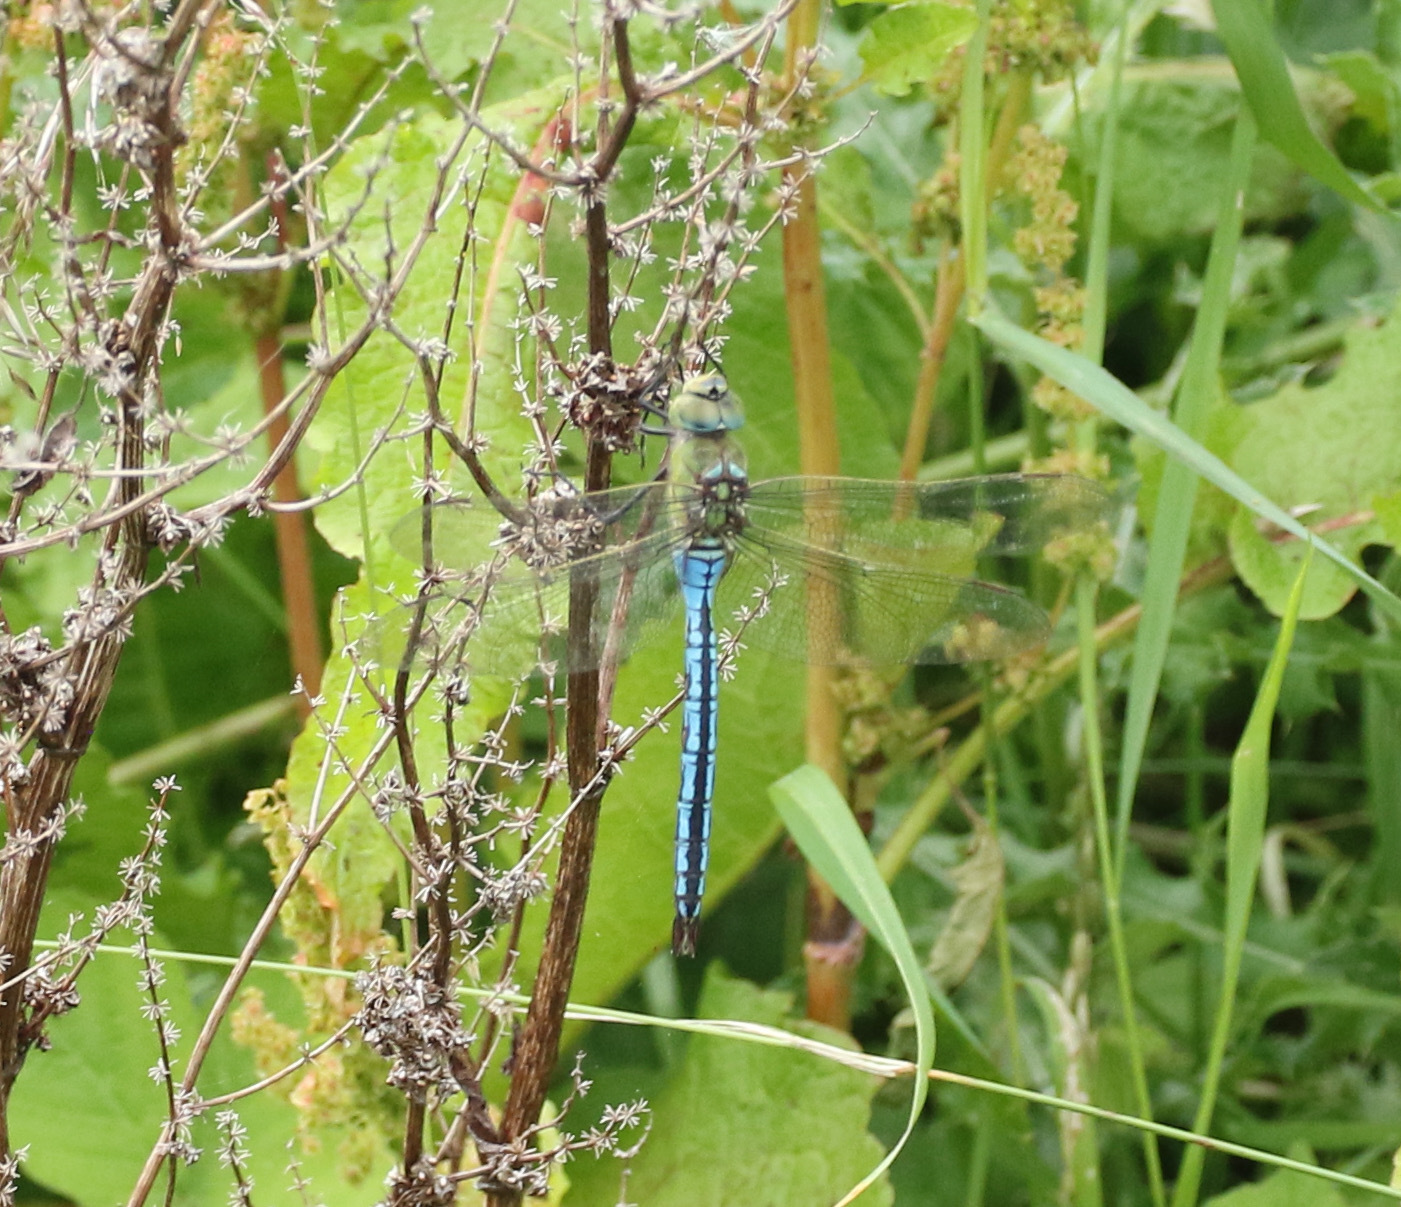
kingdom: Animalia
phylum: Arthropoda
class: Insecta
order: Odonata
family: Aeshnidae
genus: Anax
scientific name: Anax imperator
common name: Emperor dragonfly
